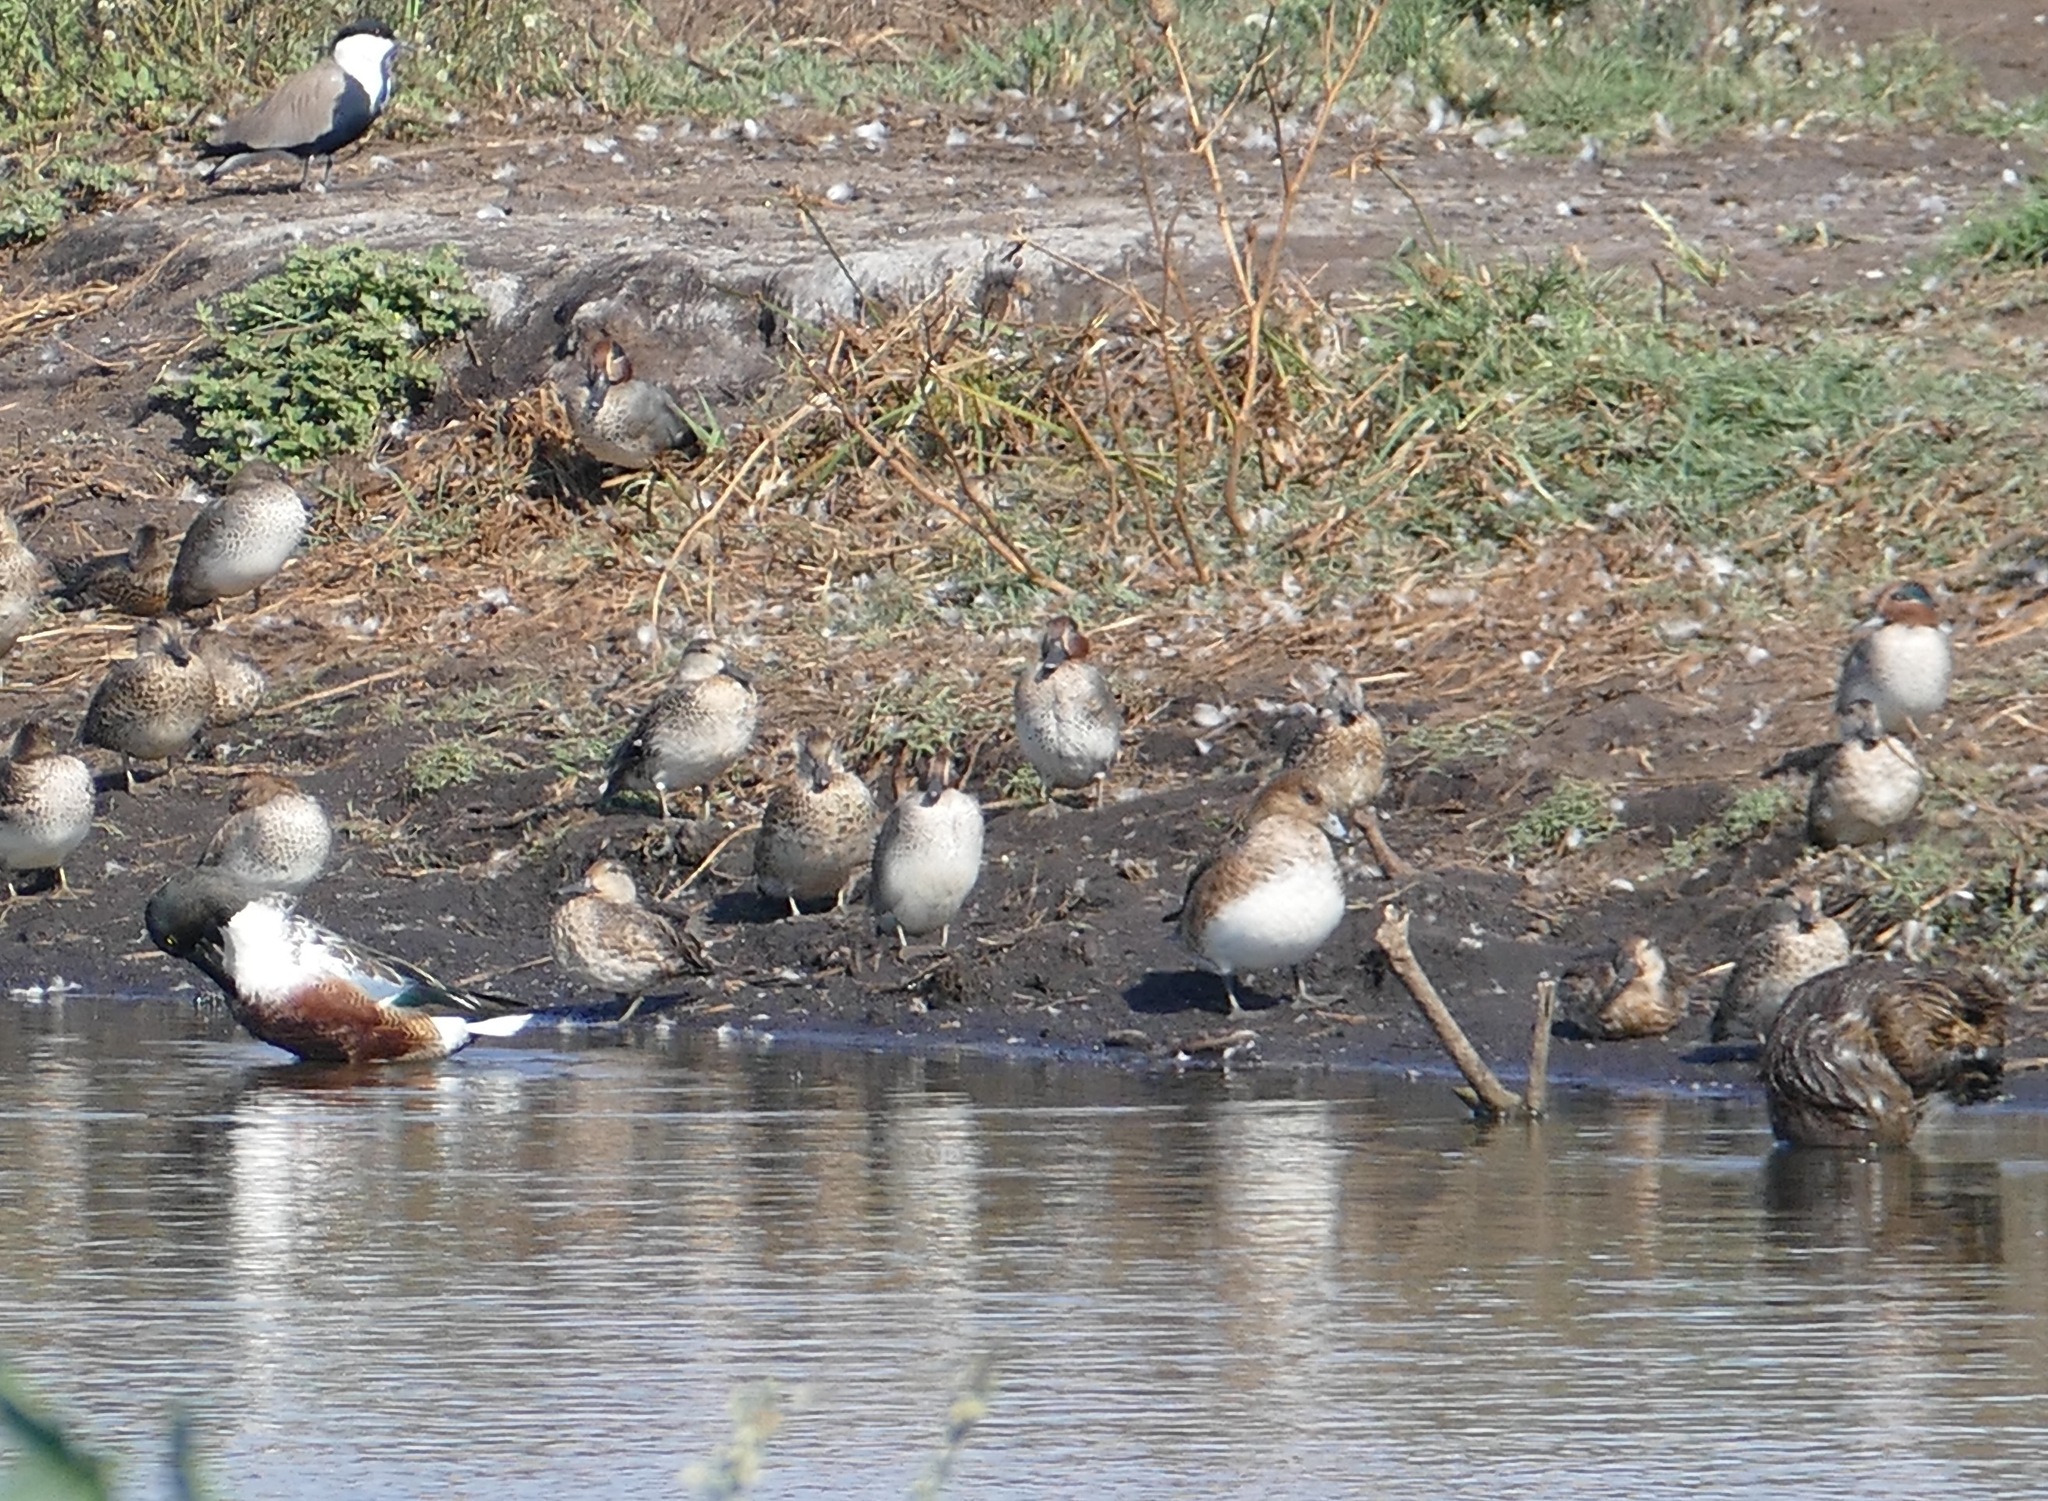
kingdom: Animalia
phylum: Chordata
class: Aves
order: Anseriformes
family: Anatidae
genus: Anas
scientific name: Anas crecca
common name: Eurasian teal
